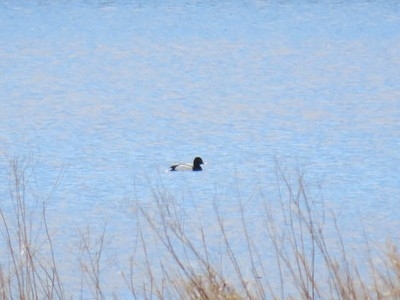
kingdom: Animalia
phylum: Chordata
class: Aves
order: Anseriformes
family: Anatidae
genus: Aythya
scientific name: Aythya affinis
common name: Lesser scaup
